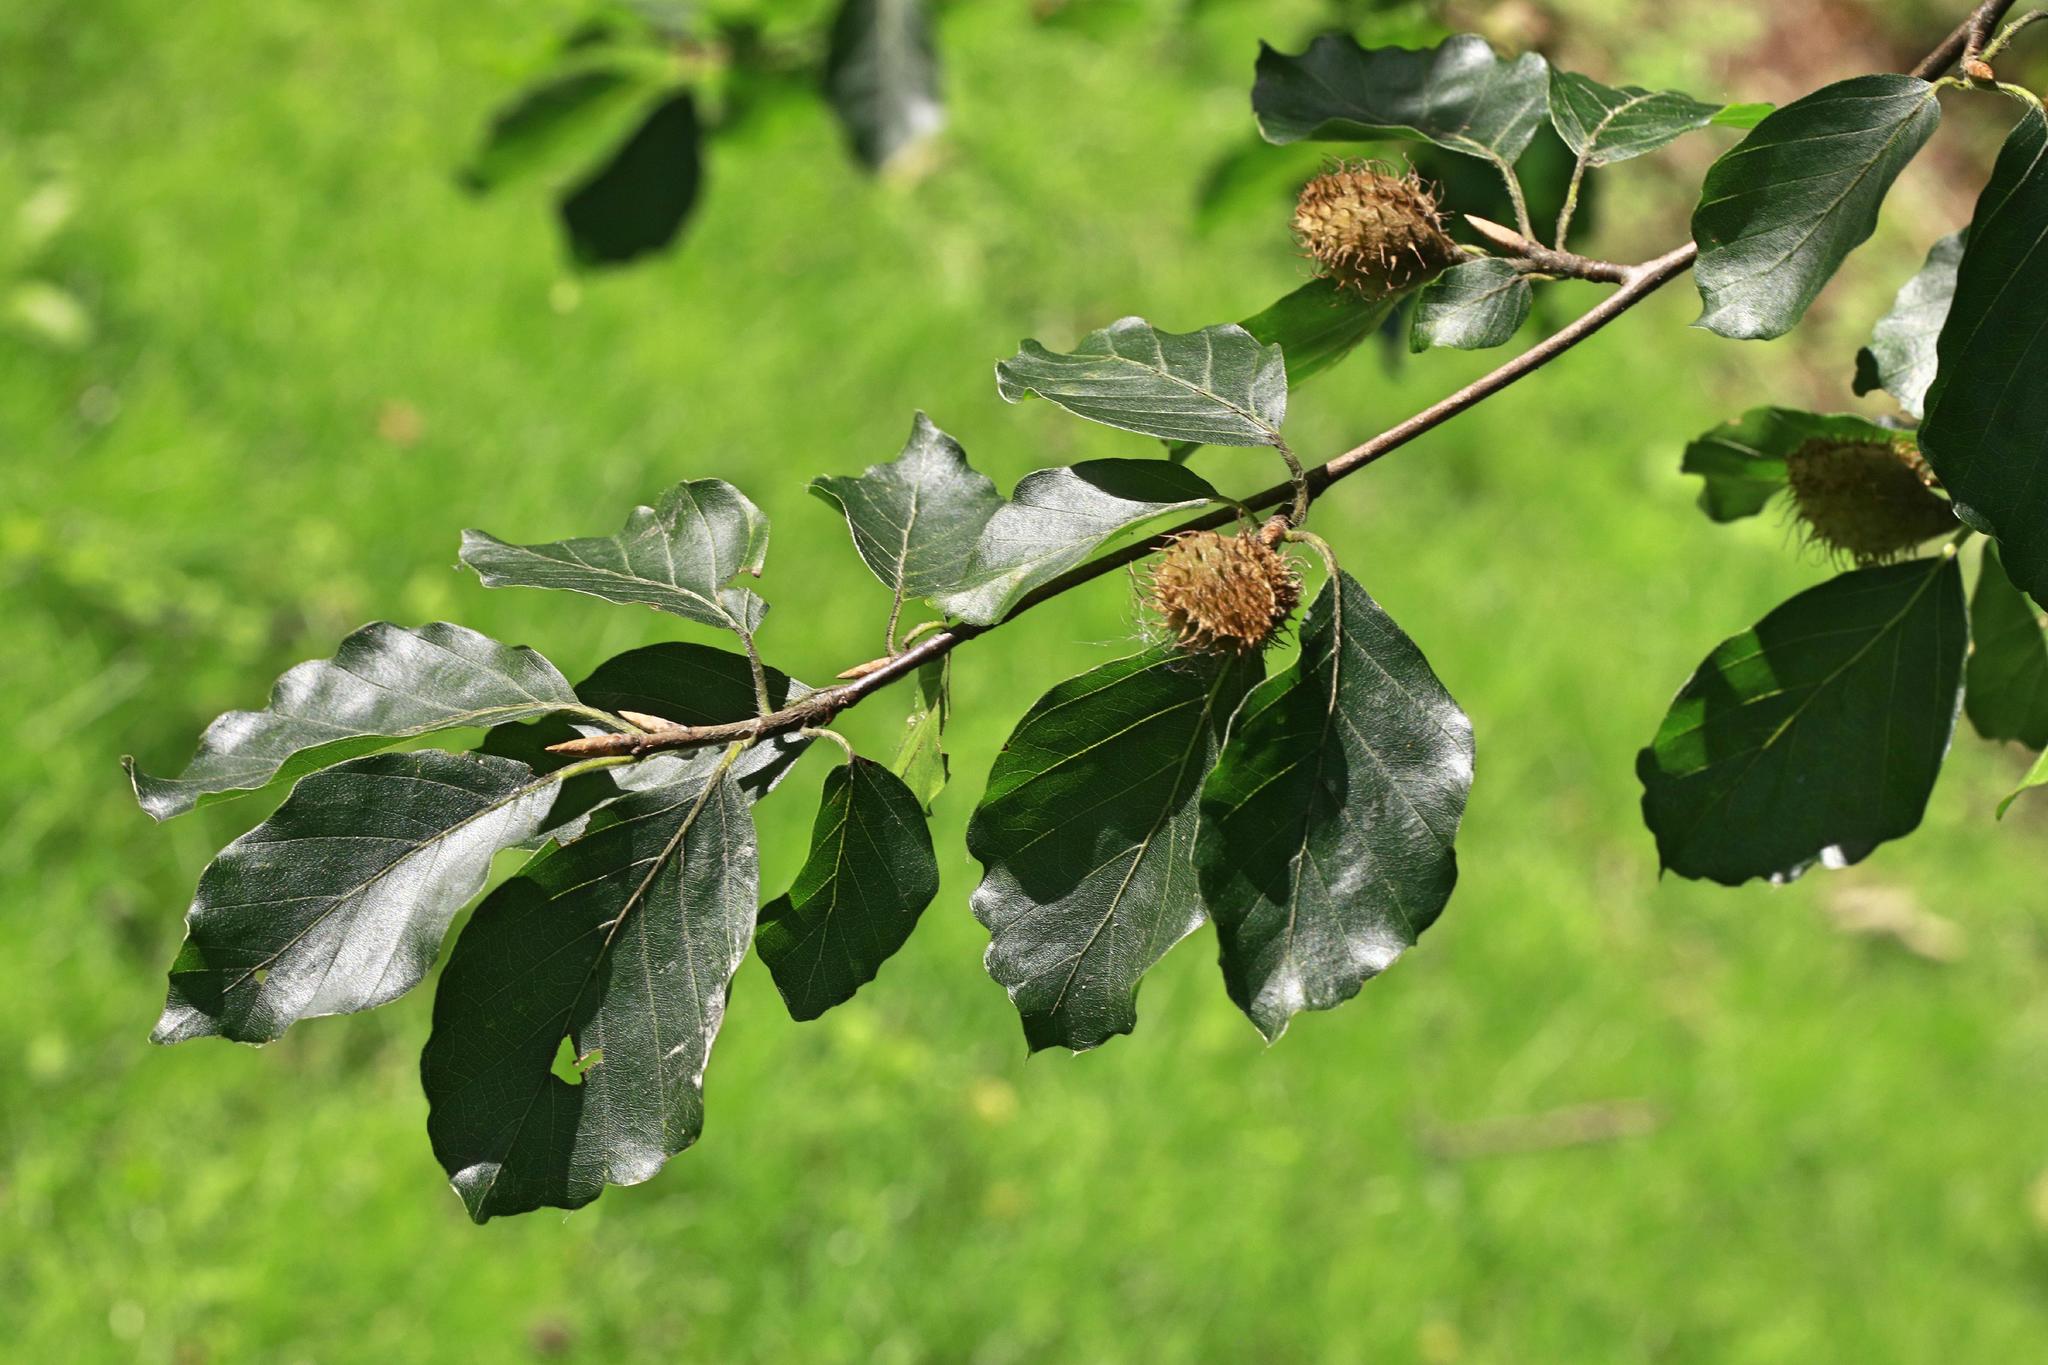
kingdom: Plantae
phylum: Tracheophyta
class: Magnoliopsida
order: Fagales
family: Fagaceae
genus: Fagus
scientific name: Fagus sylvatica
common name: Beech
